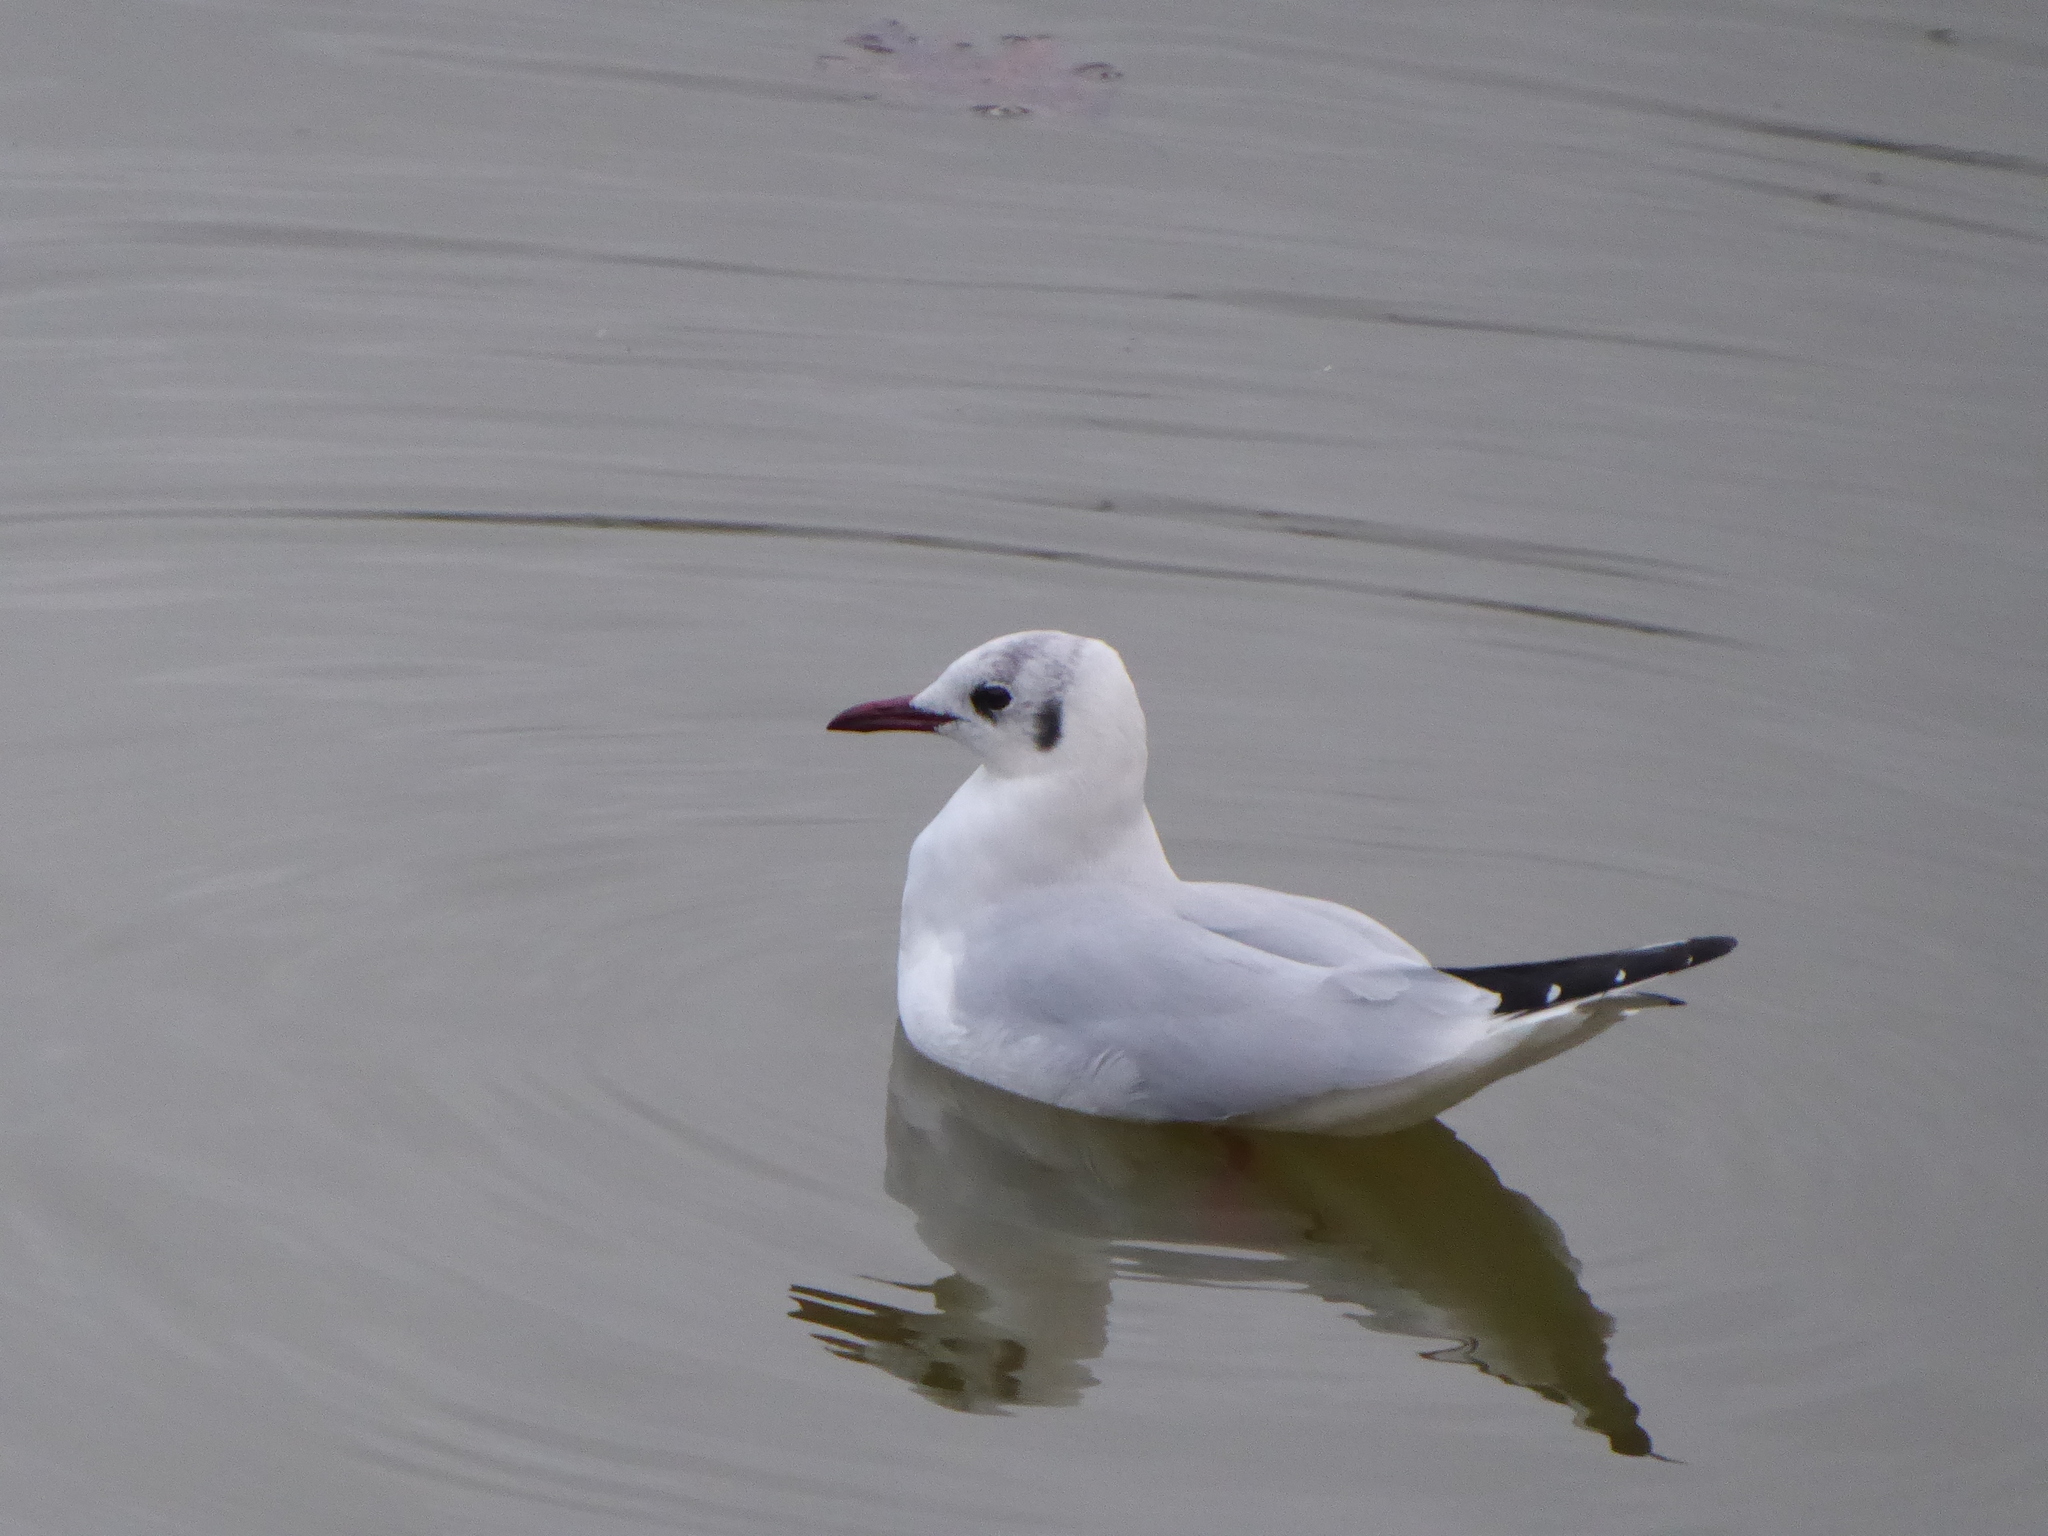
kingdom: Animalia
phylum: Chordata
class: Aves
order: Charadriiformes
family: Laridae
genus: Chroicocephalus
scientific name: Chroicocephalus ridibundus
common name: Black-headed gull
